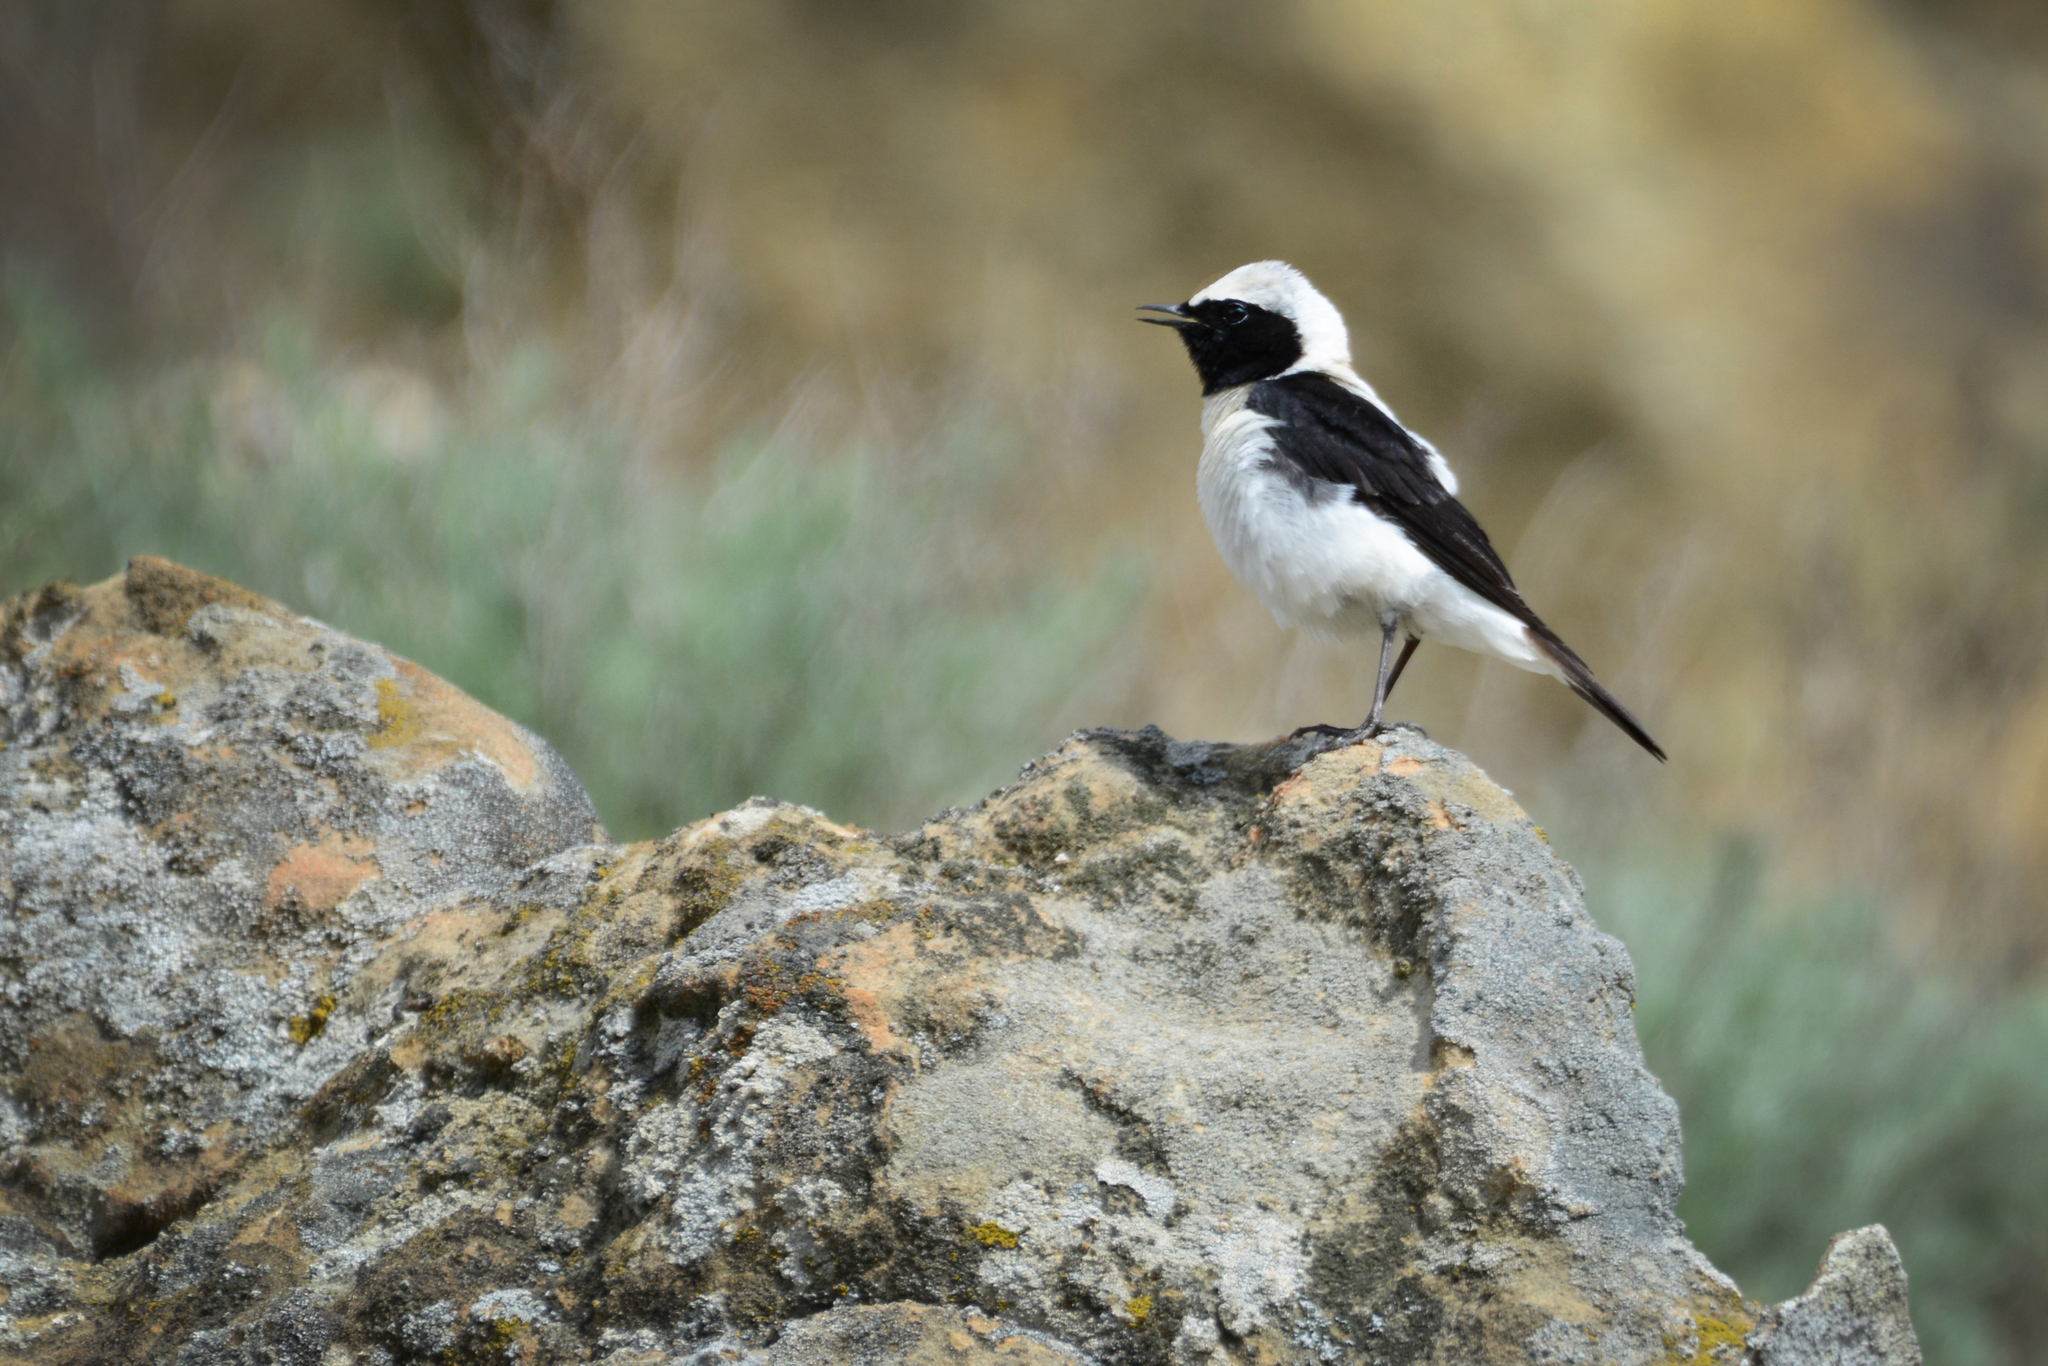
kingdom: Animalia
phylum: Chordata
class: Aves
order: Passeriformes
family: Muscicapidae
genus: Oenanthe
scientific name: Oenanthe hispanica
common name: Black-eared wheatear
